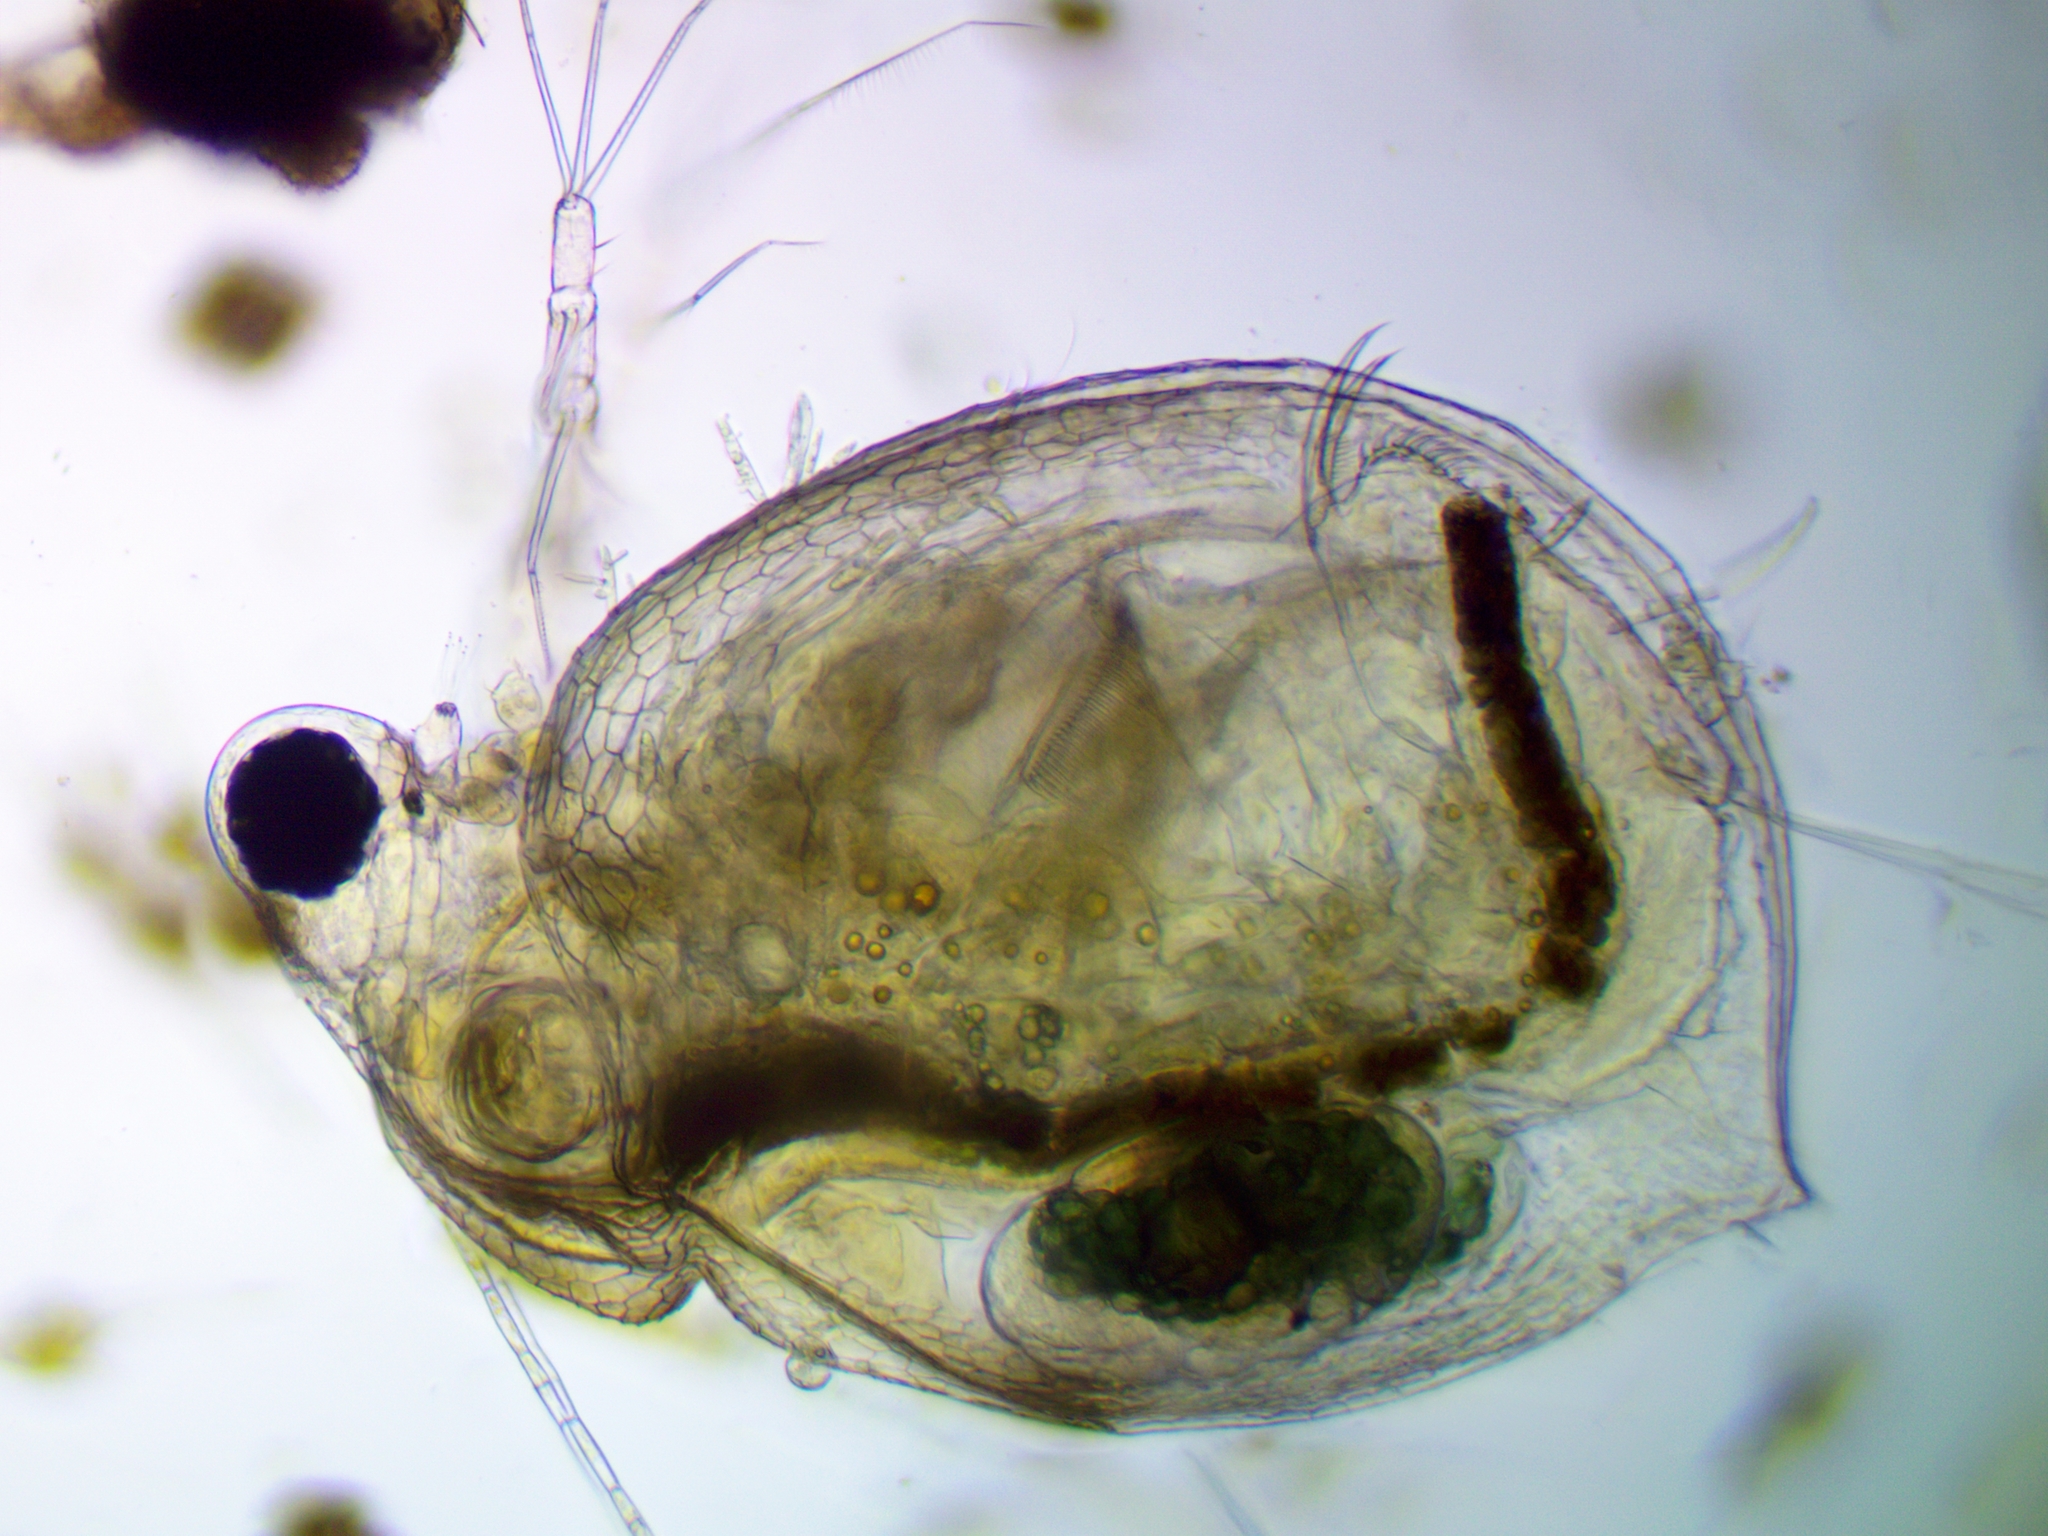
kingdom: Animalia
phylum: Arthropoda
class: Branchiopoda
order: Diplostraca
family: Daphniidae
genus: Ceriodaphnia
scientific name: Ceriodaphnia reticulata
